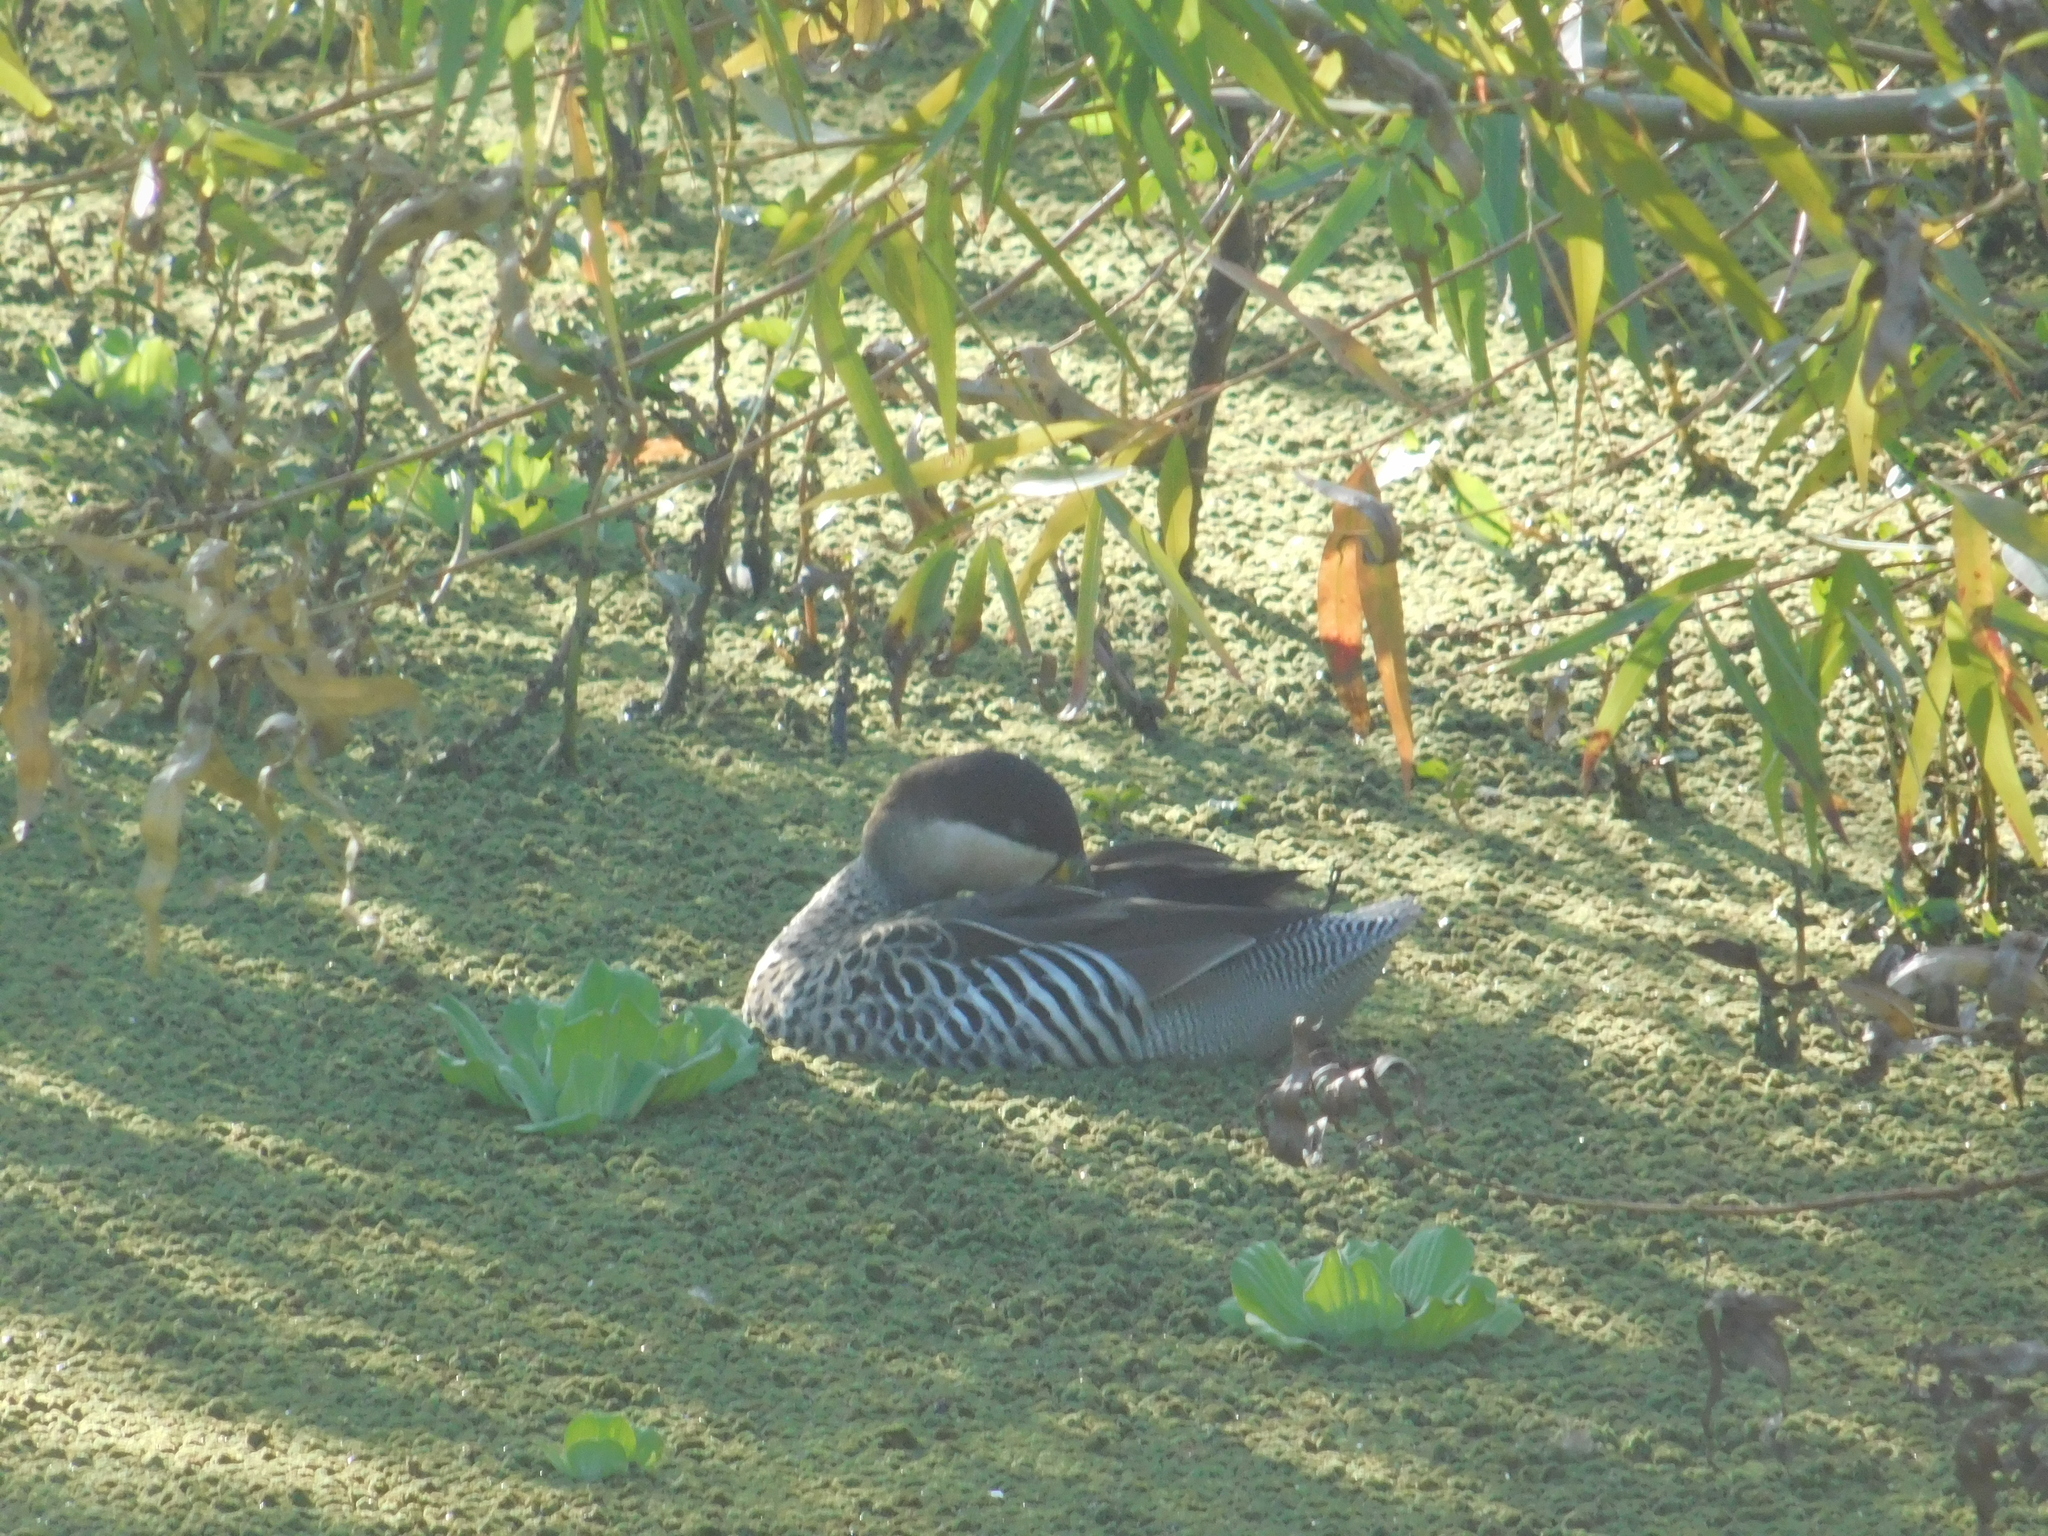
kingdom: Animalia
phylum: Chordata
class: Aves
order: Anseriformes
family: Anatidae
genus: Spatula
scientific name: Spatula versicolor
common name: Silver teal
